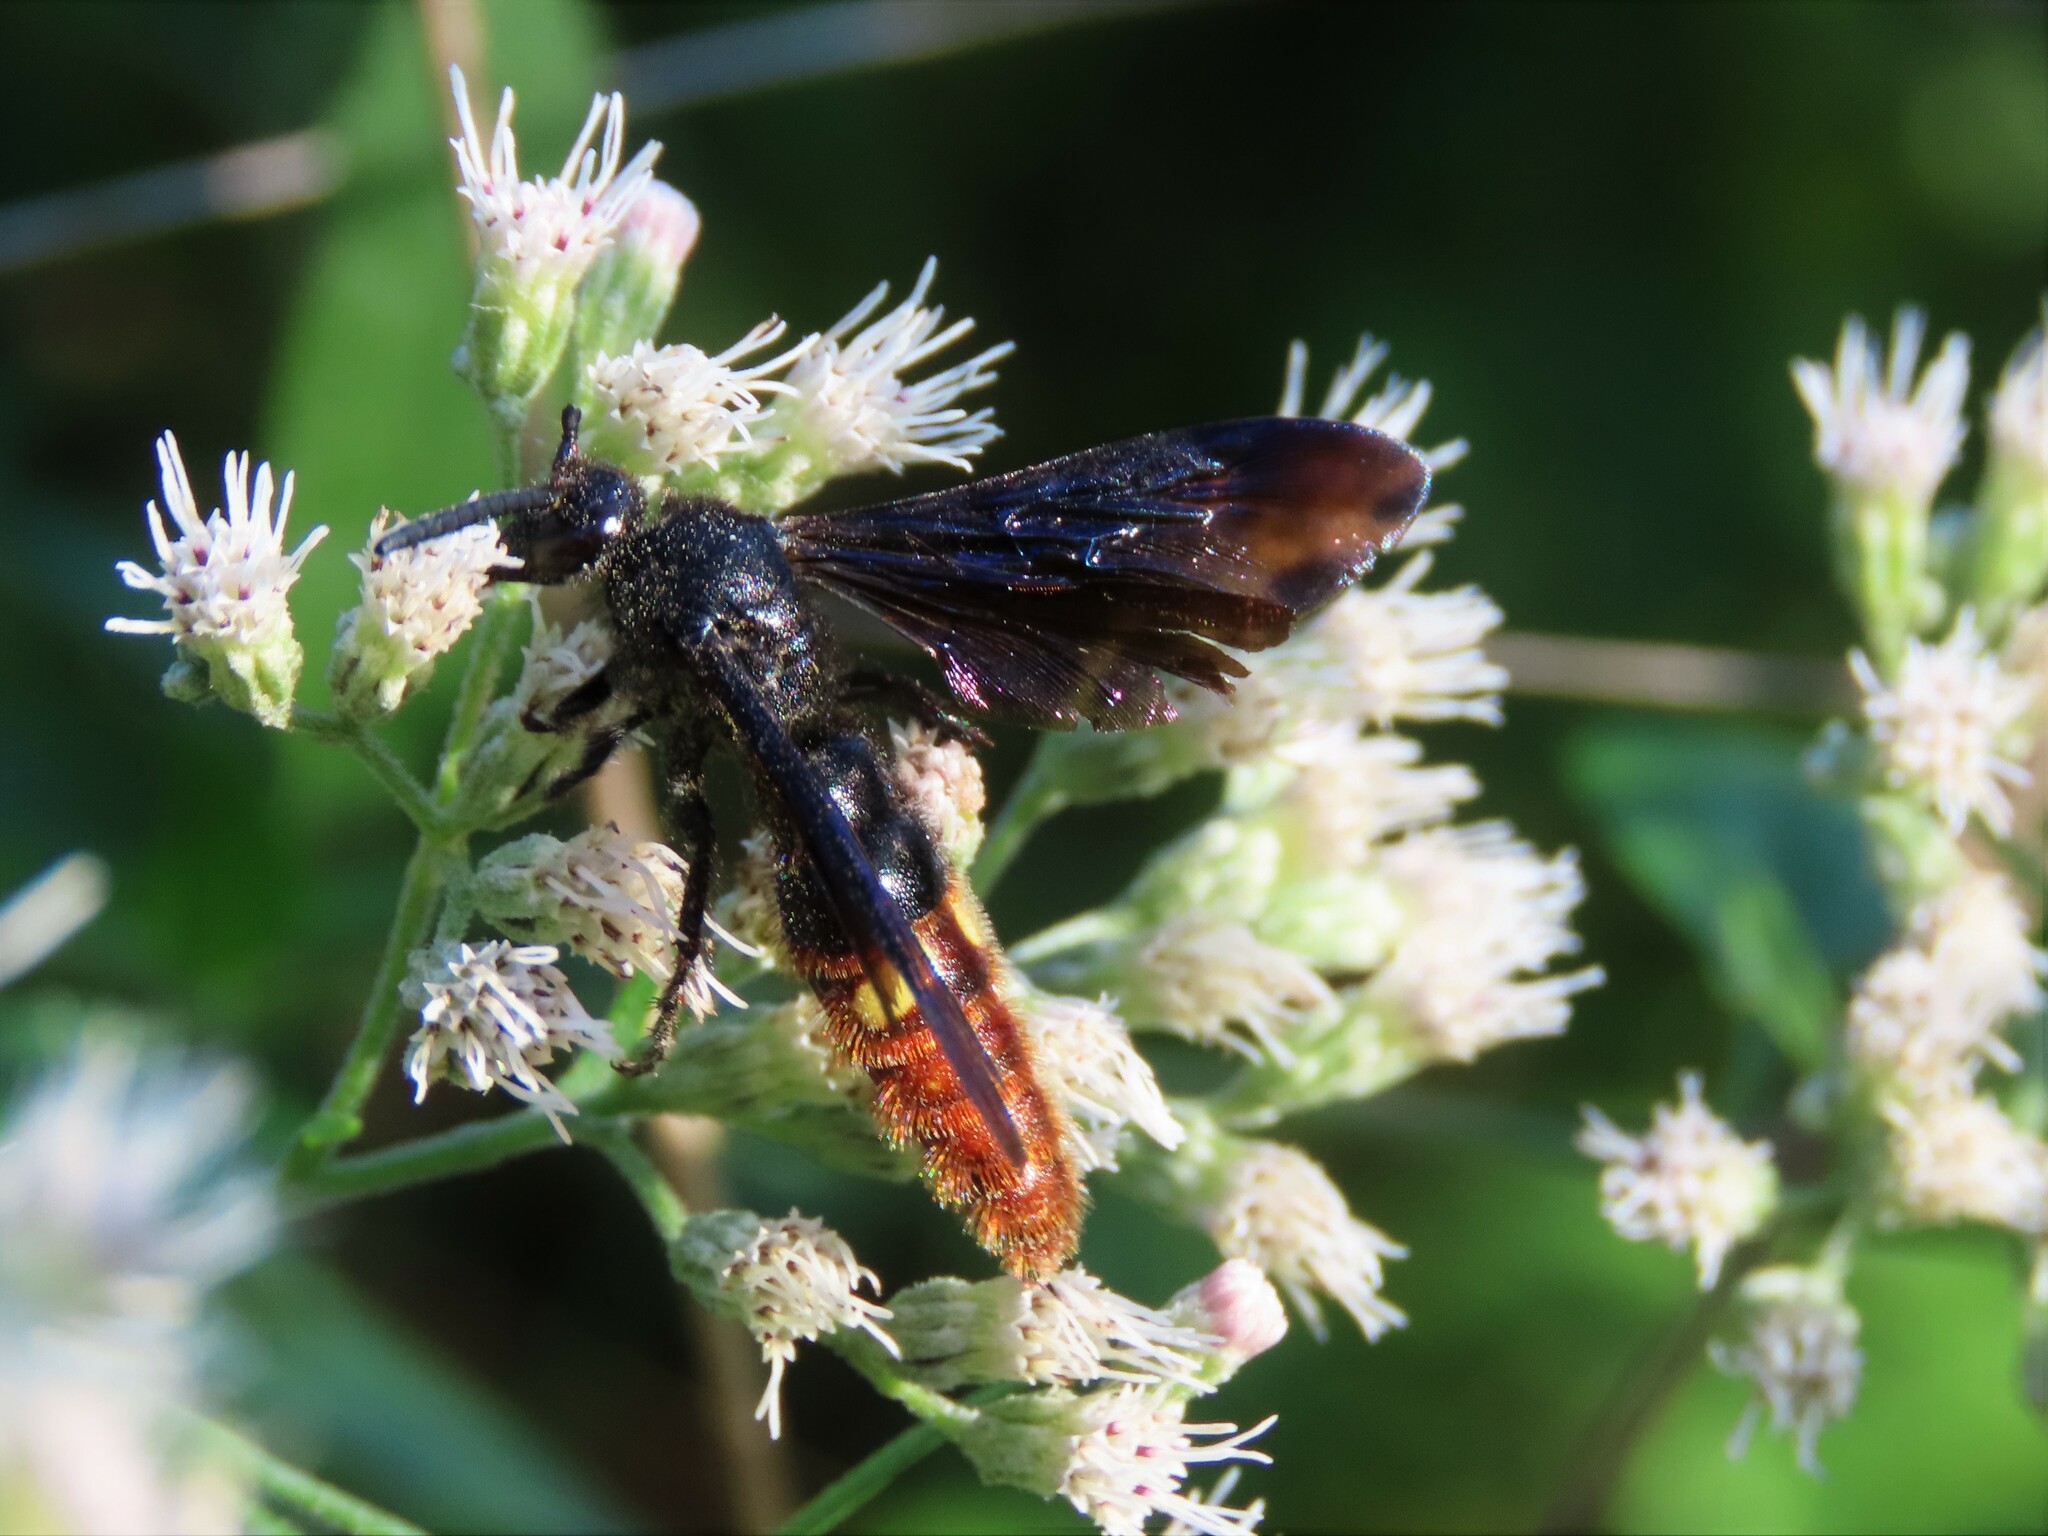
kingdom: Animalia
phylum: Arthropoda
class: Insecta
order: Hymenoptera
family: Scoliidae
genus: Scolia
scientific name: Scolia dubia
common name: Blue-winged scoliid wasp
